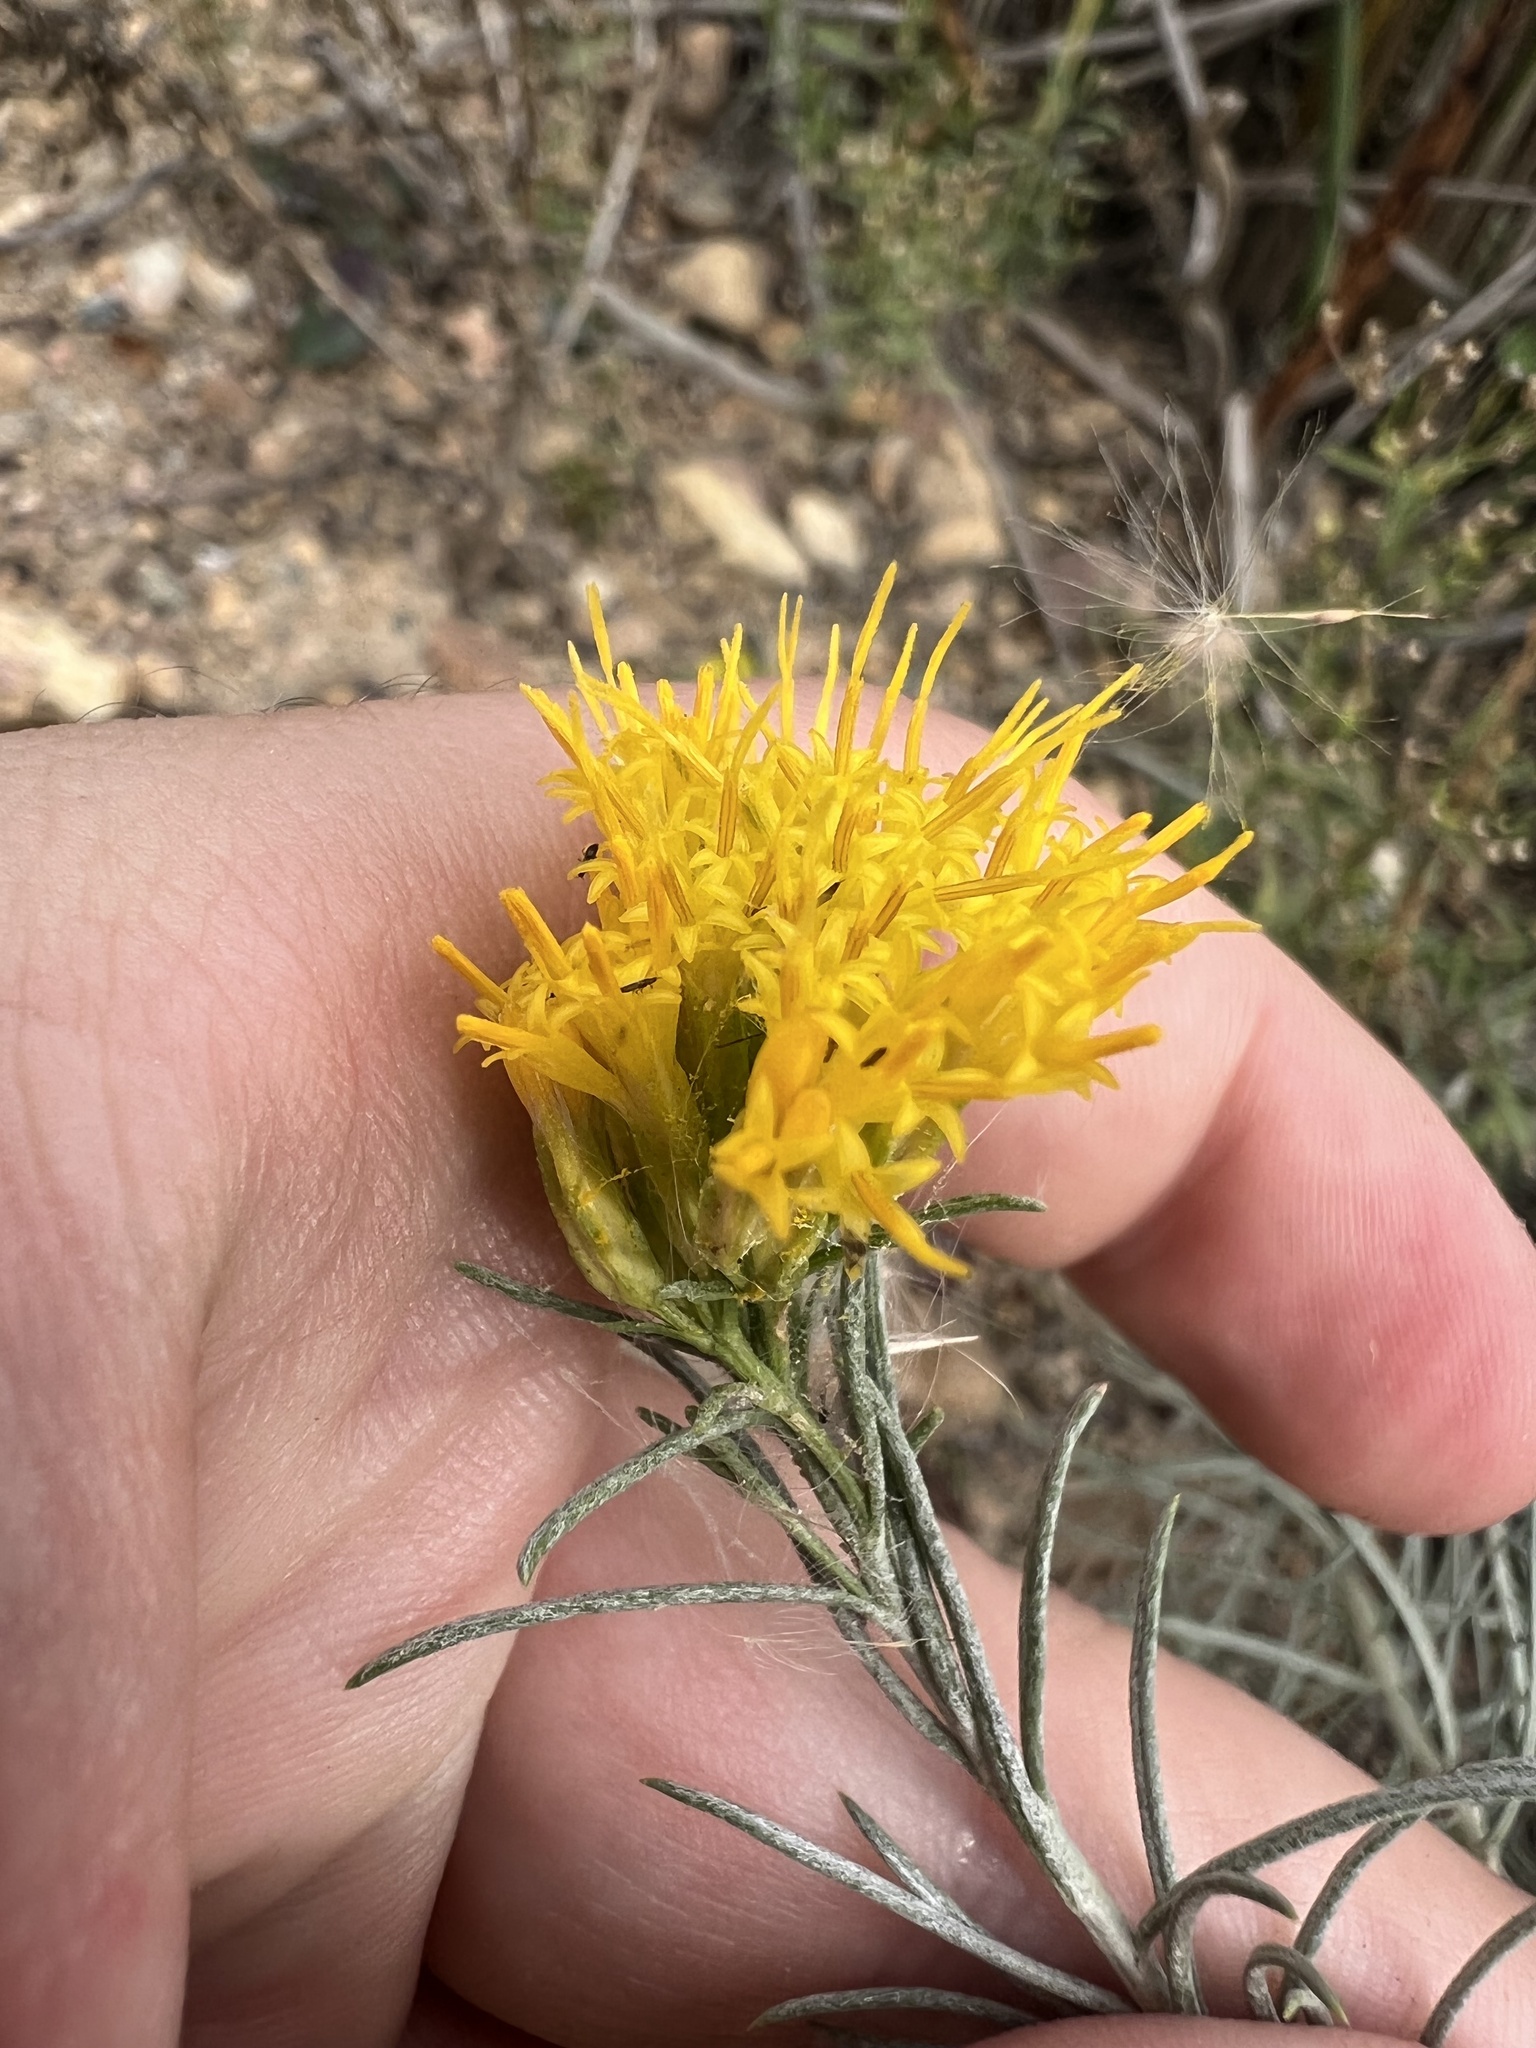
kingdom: Plantae
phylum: Tracheophyta
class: Magnoliopsida
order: Asterales
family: Asteraceae
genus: Ericameria
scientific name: Ericameria nauseosa
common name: Rubber rabbitbrush
